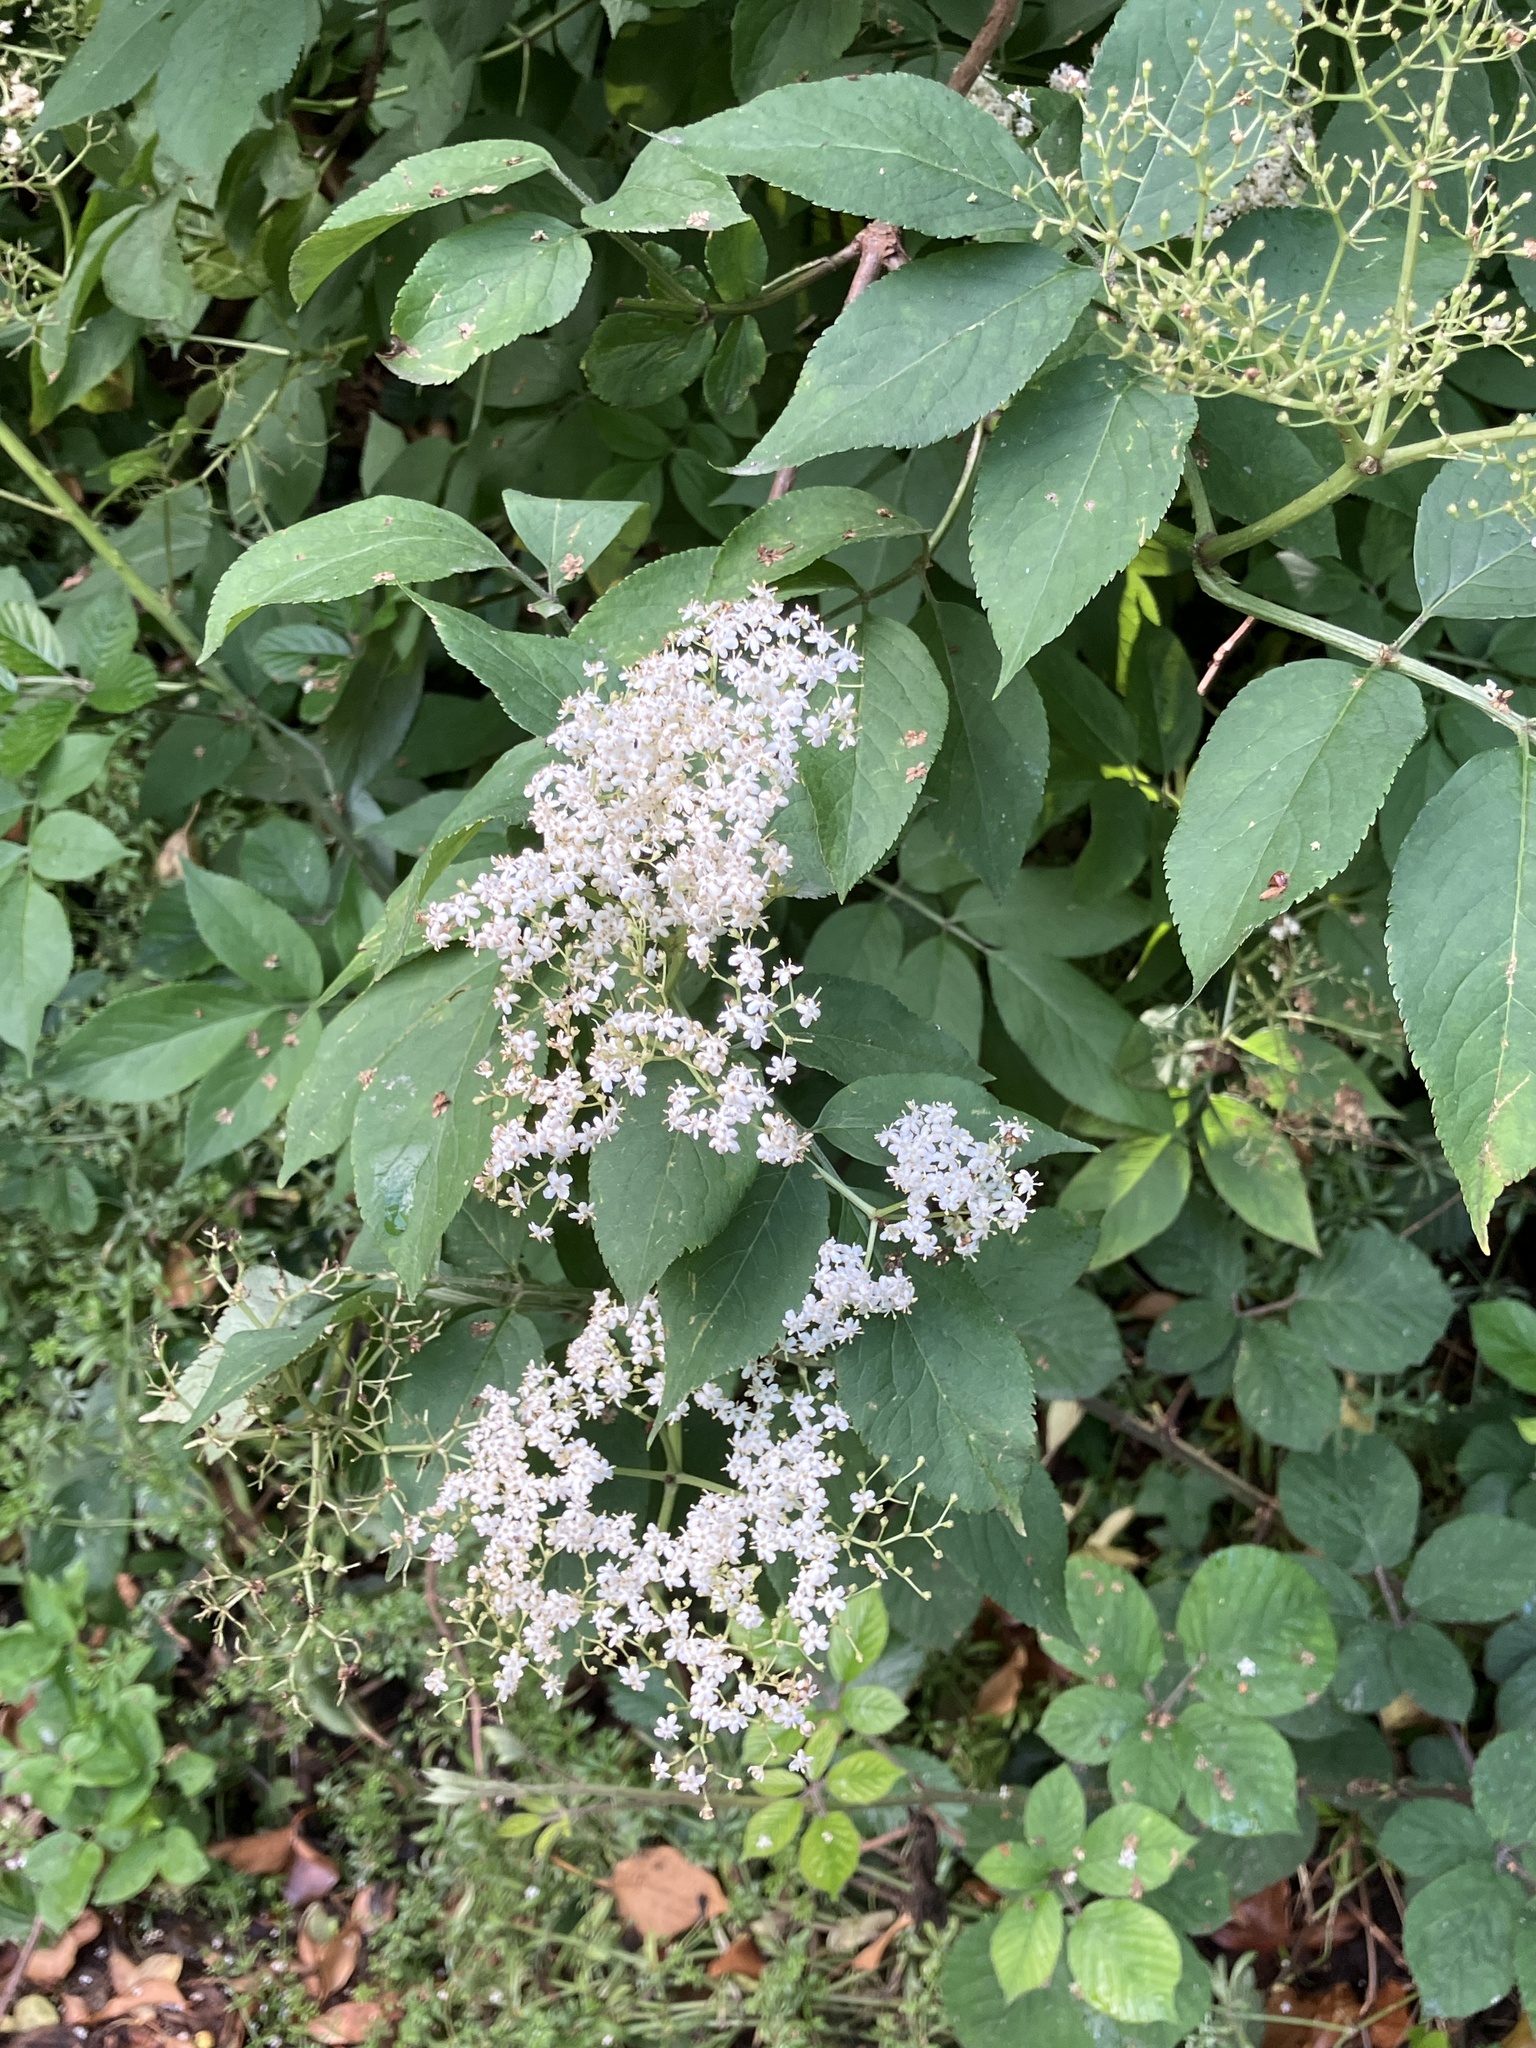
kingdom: Plantae
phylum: Tracheophyta
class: Magnoliopsida
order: Dipsacales
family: Viburnaceae
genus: Sambucus
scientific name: Sambucus nigra
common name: Elder
